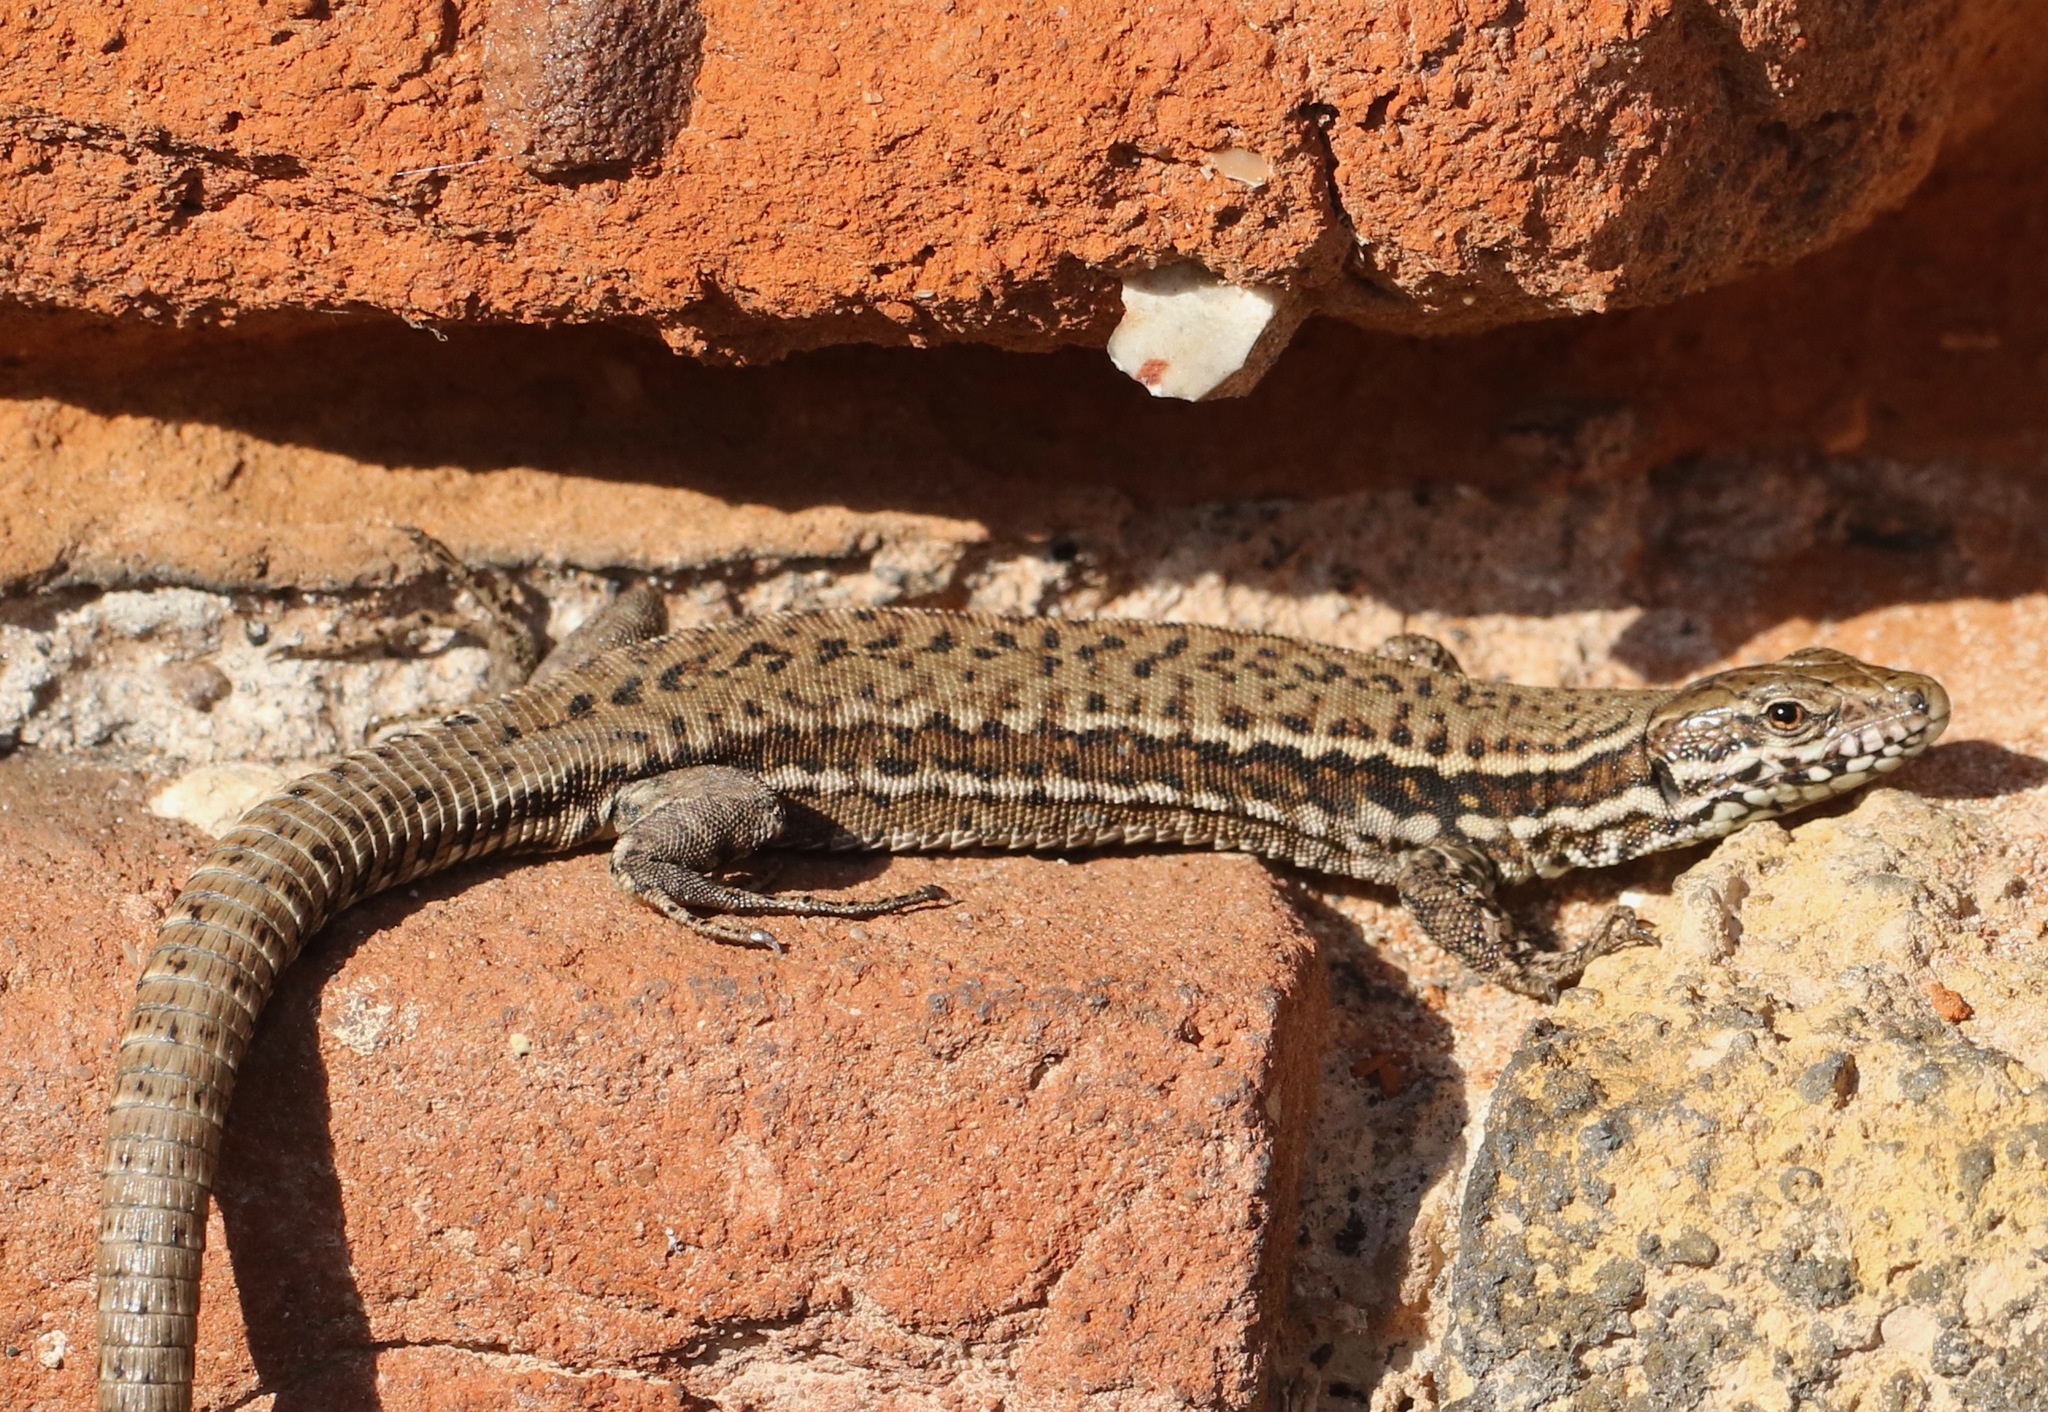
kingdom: Animalia
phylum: Chordata
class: Squamata
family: Lacertidae
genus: Podarcis
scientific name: Podarcis muralis
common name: Common wall lizard
